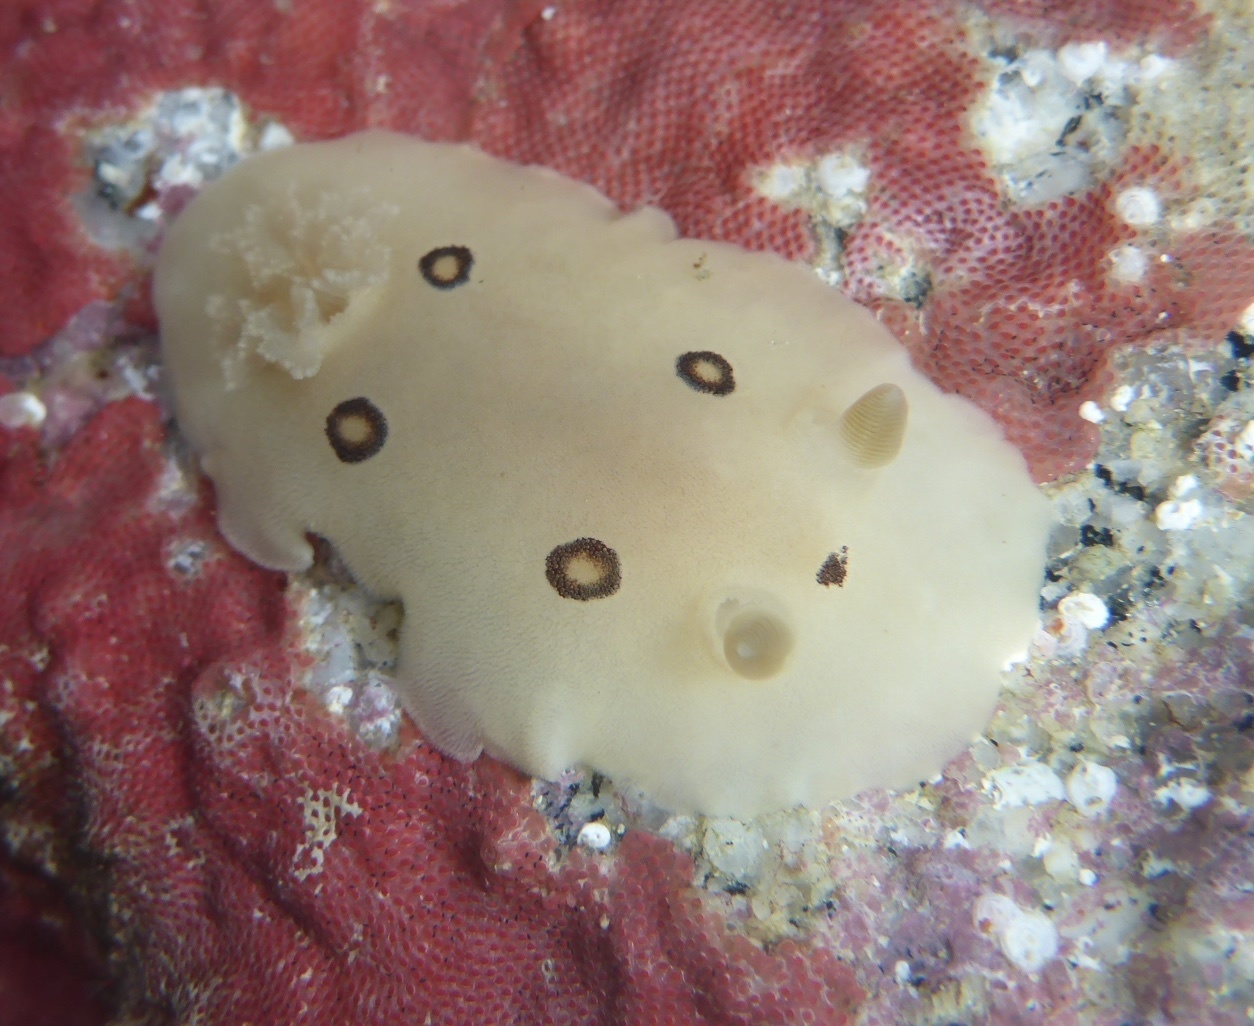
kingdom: Animalia
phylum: Mollusca
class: Gastropoda
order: Nudibranchia
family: Discodorididae
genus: Diaulula
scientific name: Diaulula sandiegensis
